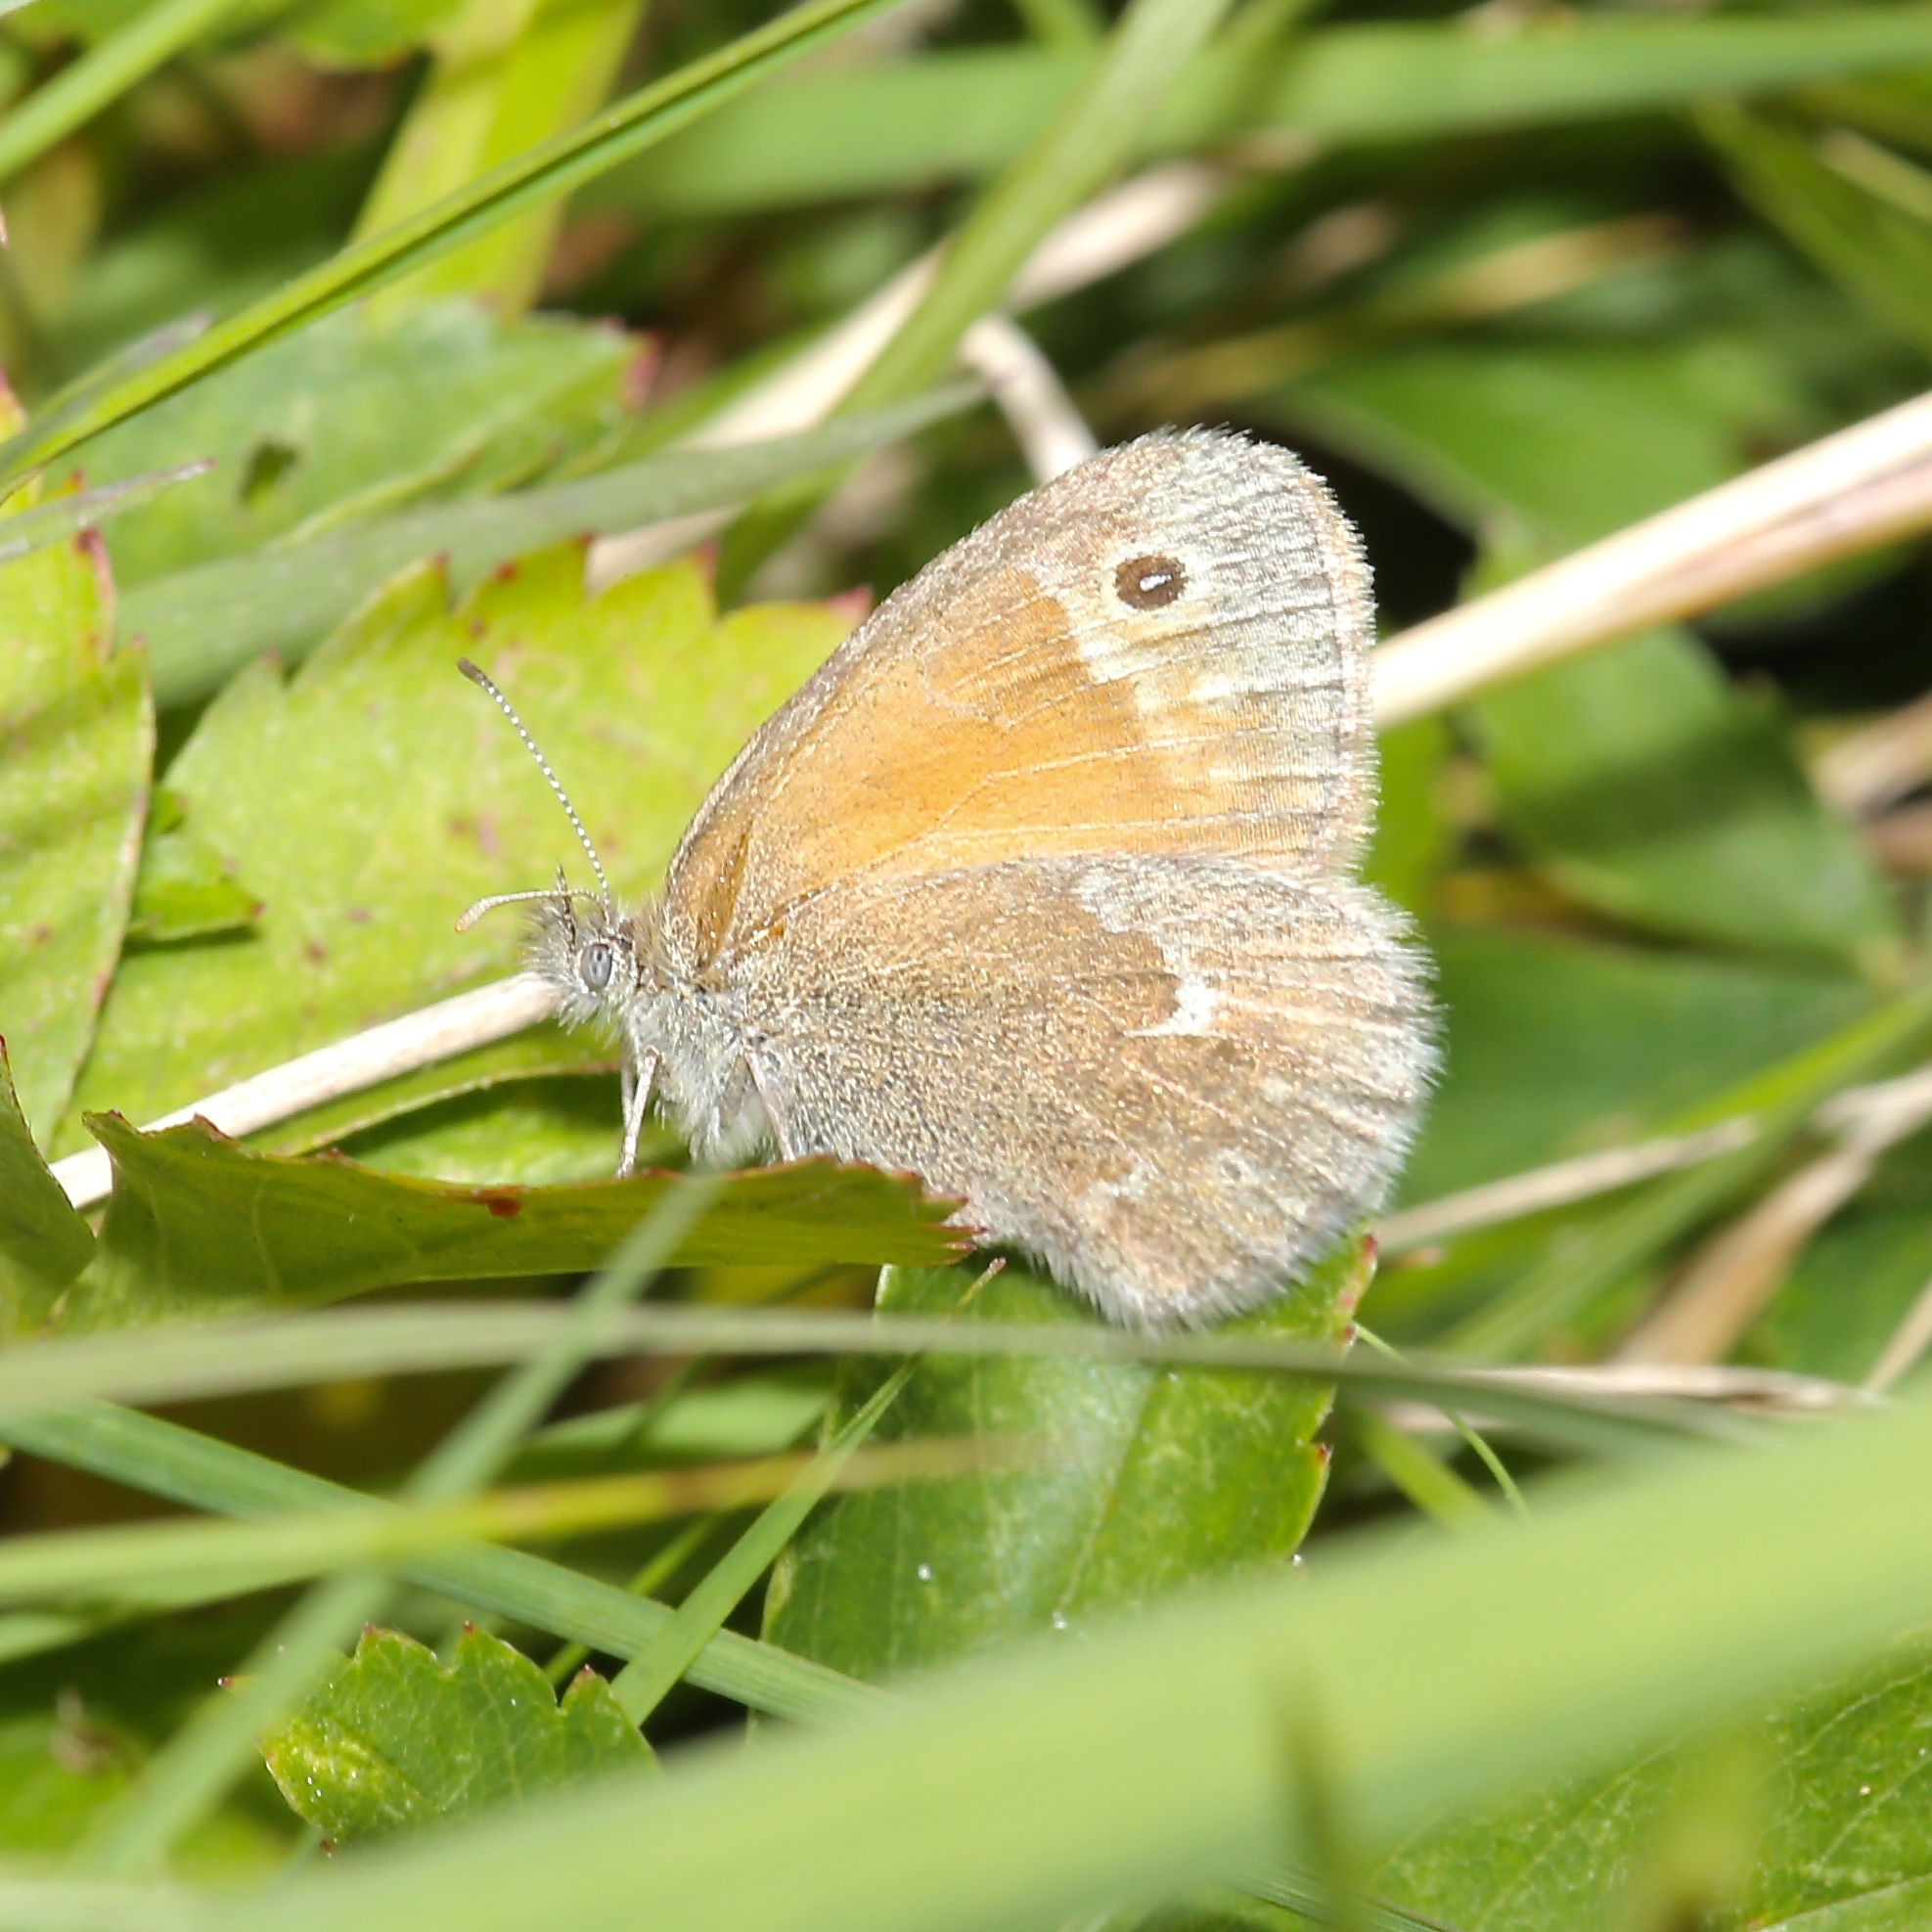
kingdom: Animalia
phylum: Arthropoda
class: Insecta
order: Lepidoptera
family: Nymphalidae
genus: Coenonympha
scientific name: Coenonympha california
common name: Common ringlet
